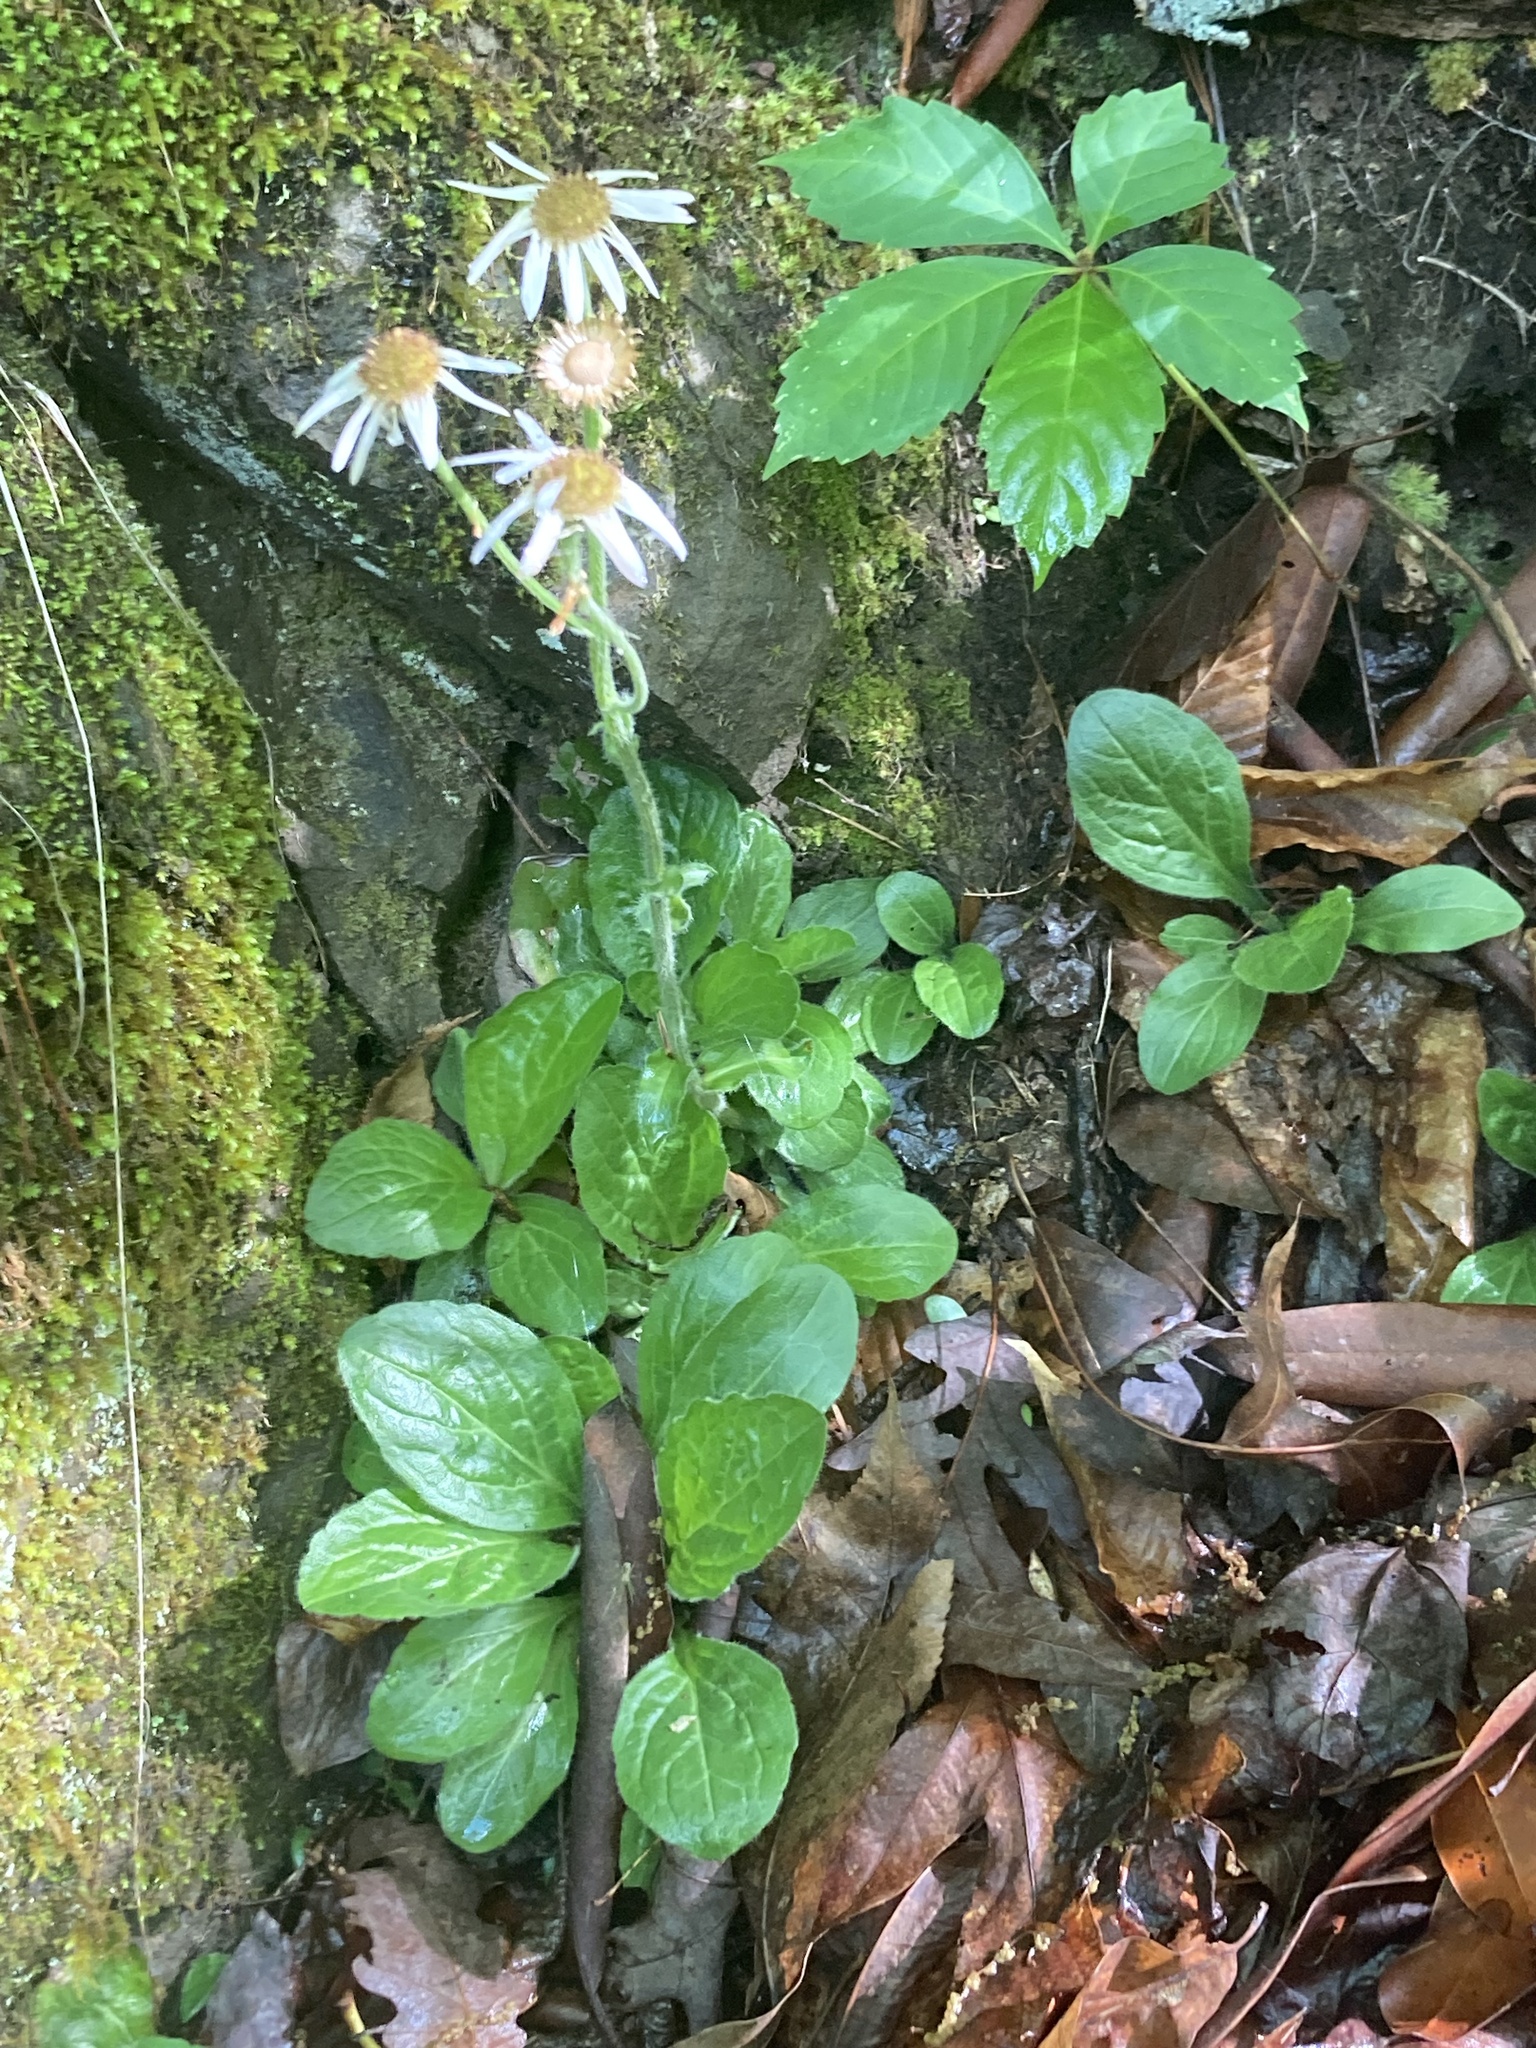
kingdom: Plantae
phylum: Tracheophyta
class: Magnoliopsida
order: Asterales
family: Asteraceae
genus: Erigeron
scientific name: Erigeron pulchellus
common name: Hairy fleabane
